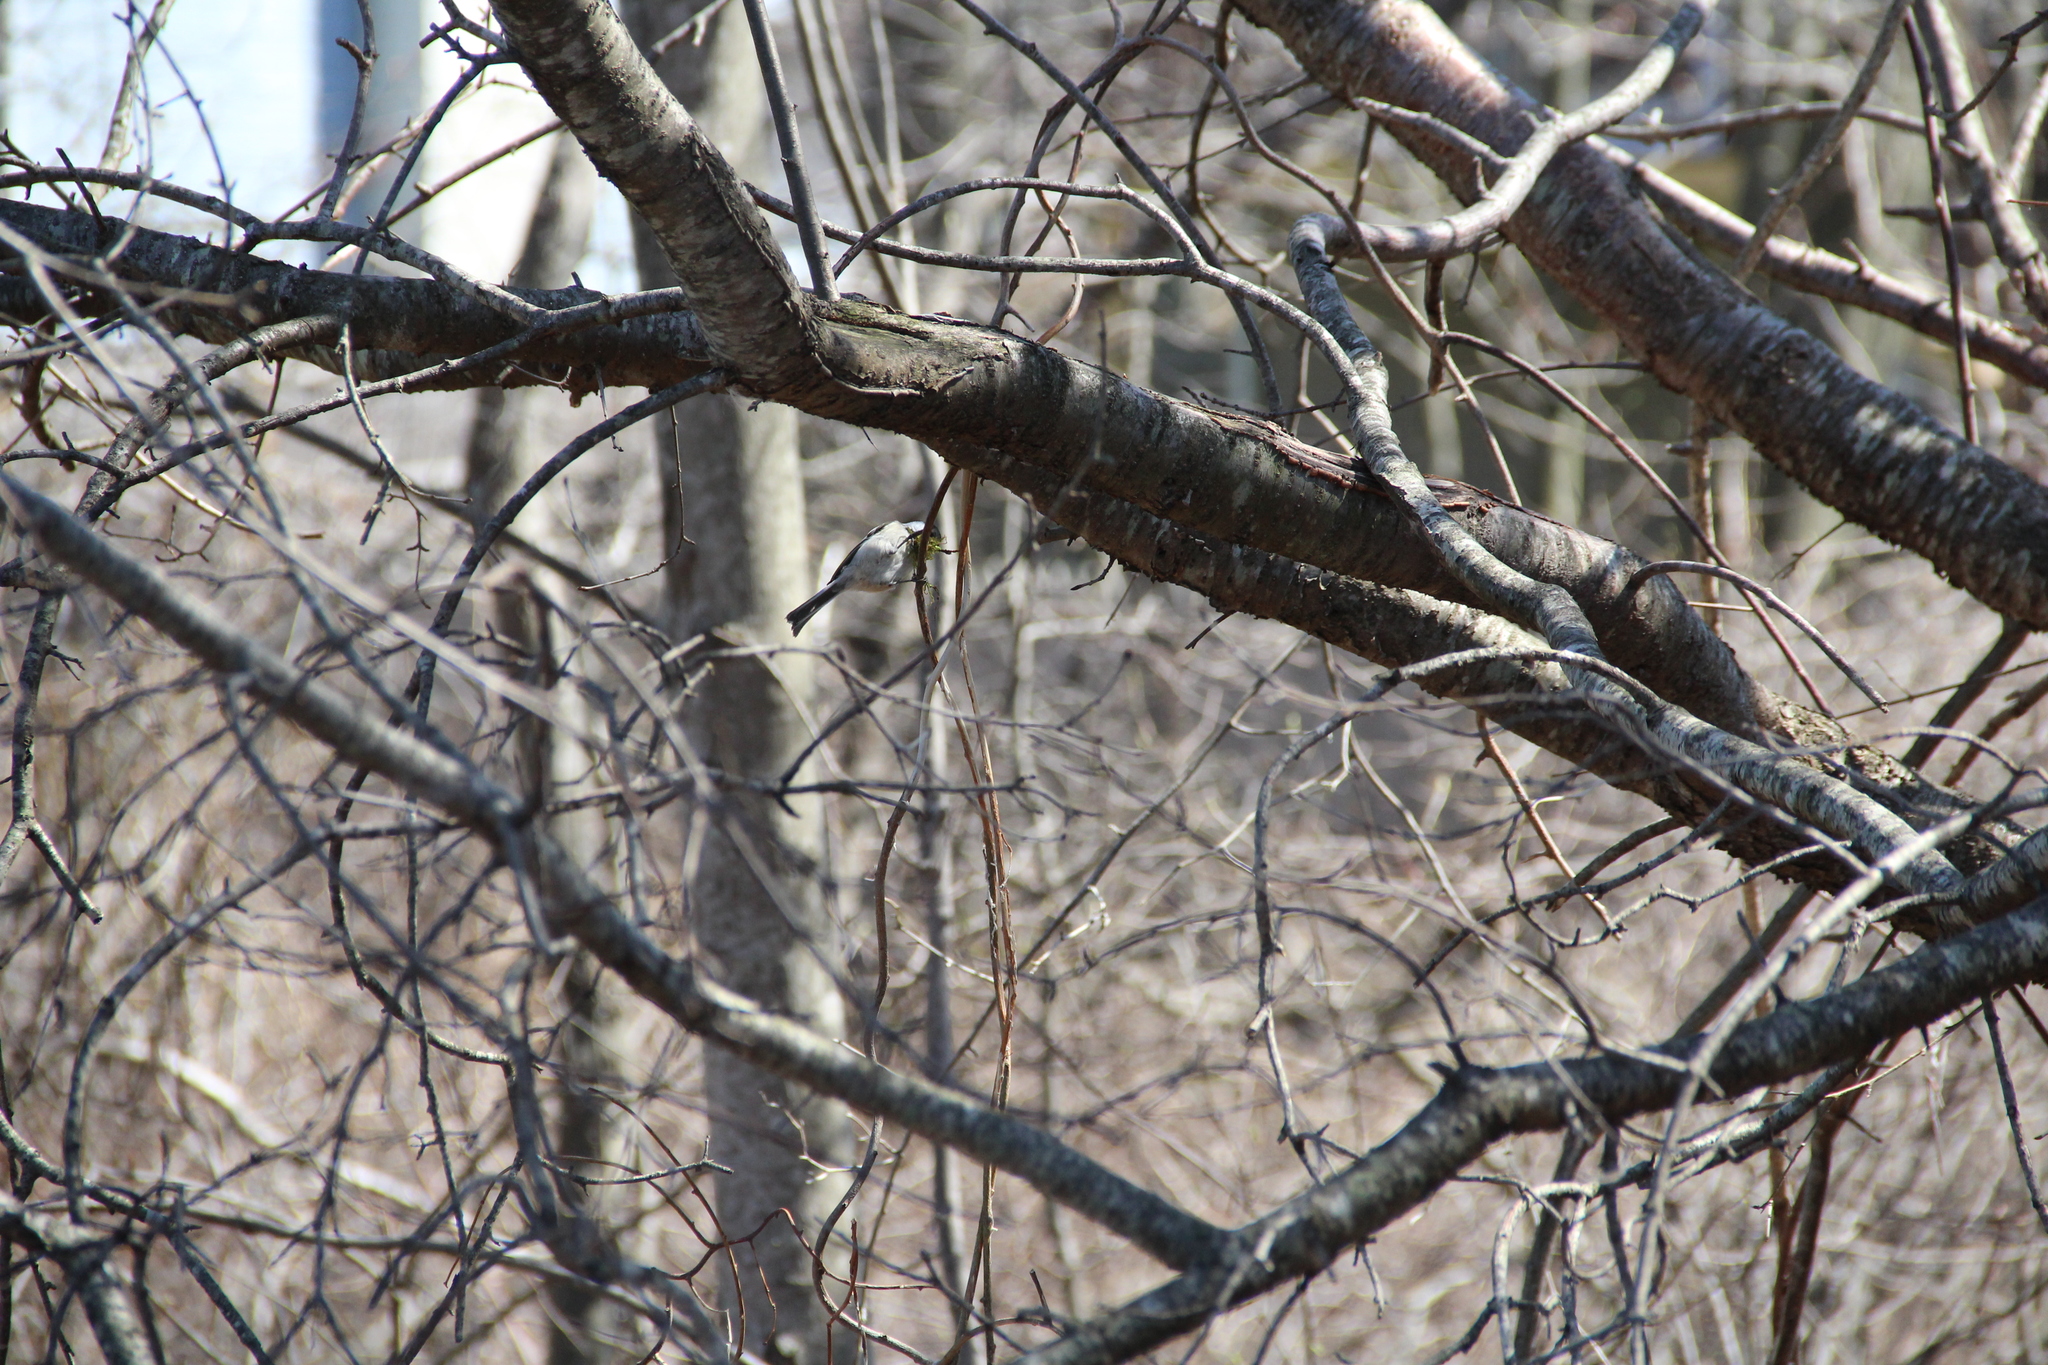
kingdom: Animalia
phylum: Chordata
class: Aves
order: Passeriformes
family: Paridae
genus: Poecile
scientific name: Poecile atricapillus
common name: Black-capped chickadee
